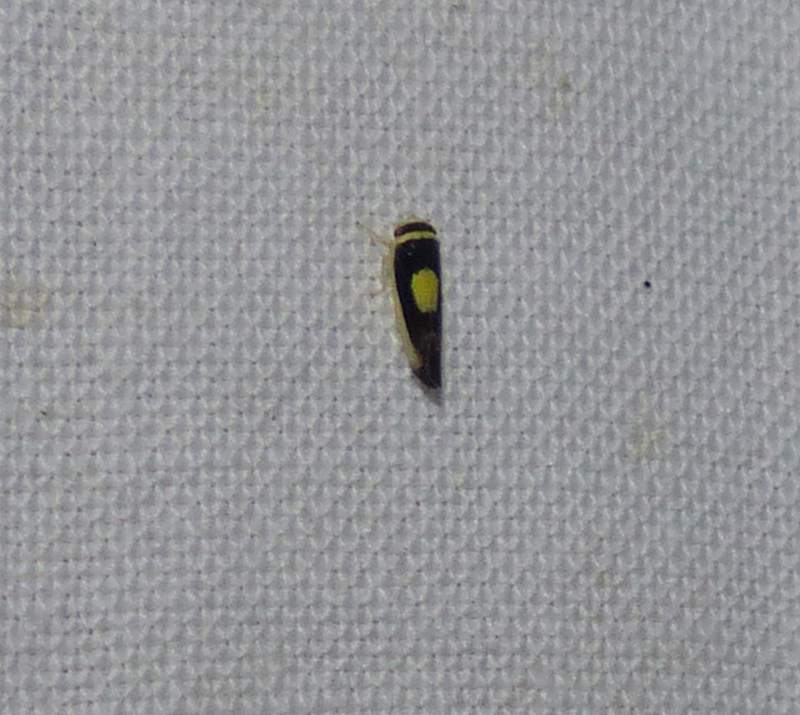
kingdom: Animalia
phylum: Arthropoda
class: Insecta
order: Hemiptera
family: Cicadellidae
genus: Colladonus
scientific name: Colladonus clitellarius
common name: The saddleback leafhopper
